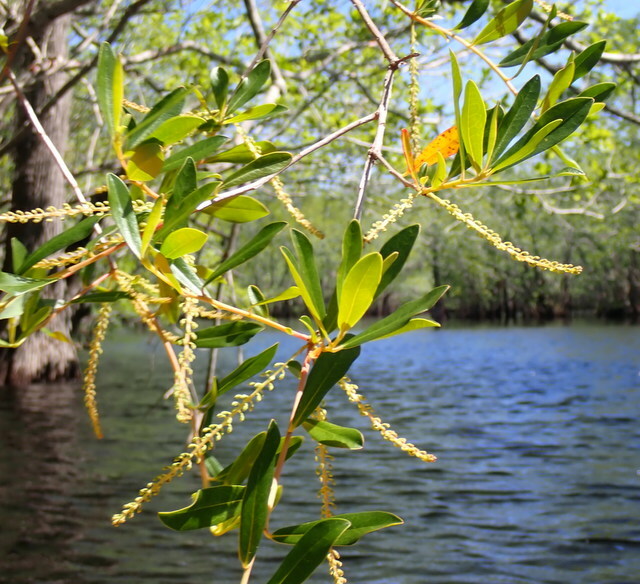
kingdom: Plantae
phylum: Tracheophyta
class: Magnoliopsida
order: Ericales
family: Cyrillaceae
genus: Cyrilla
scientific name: Cyrilla racemiflora
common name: Black titi
